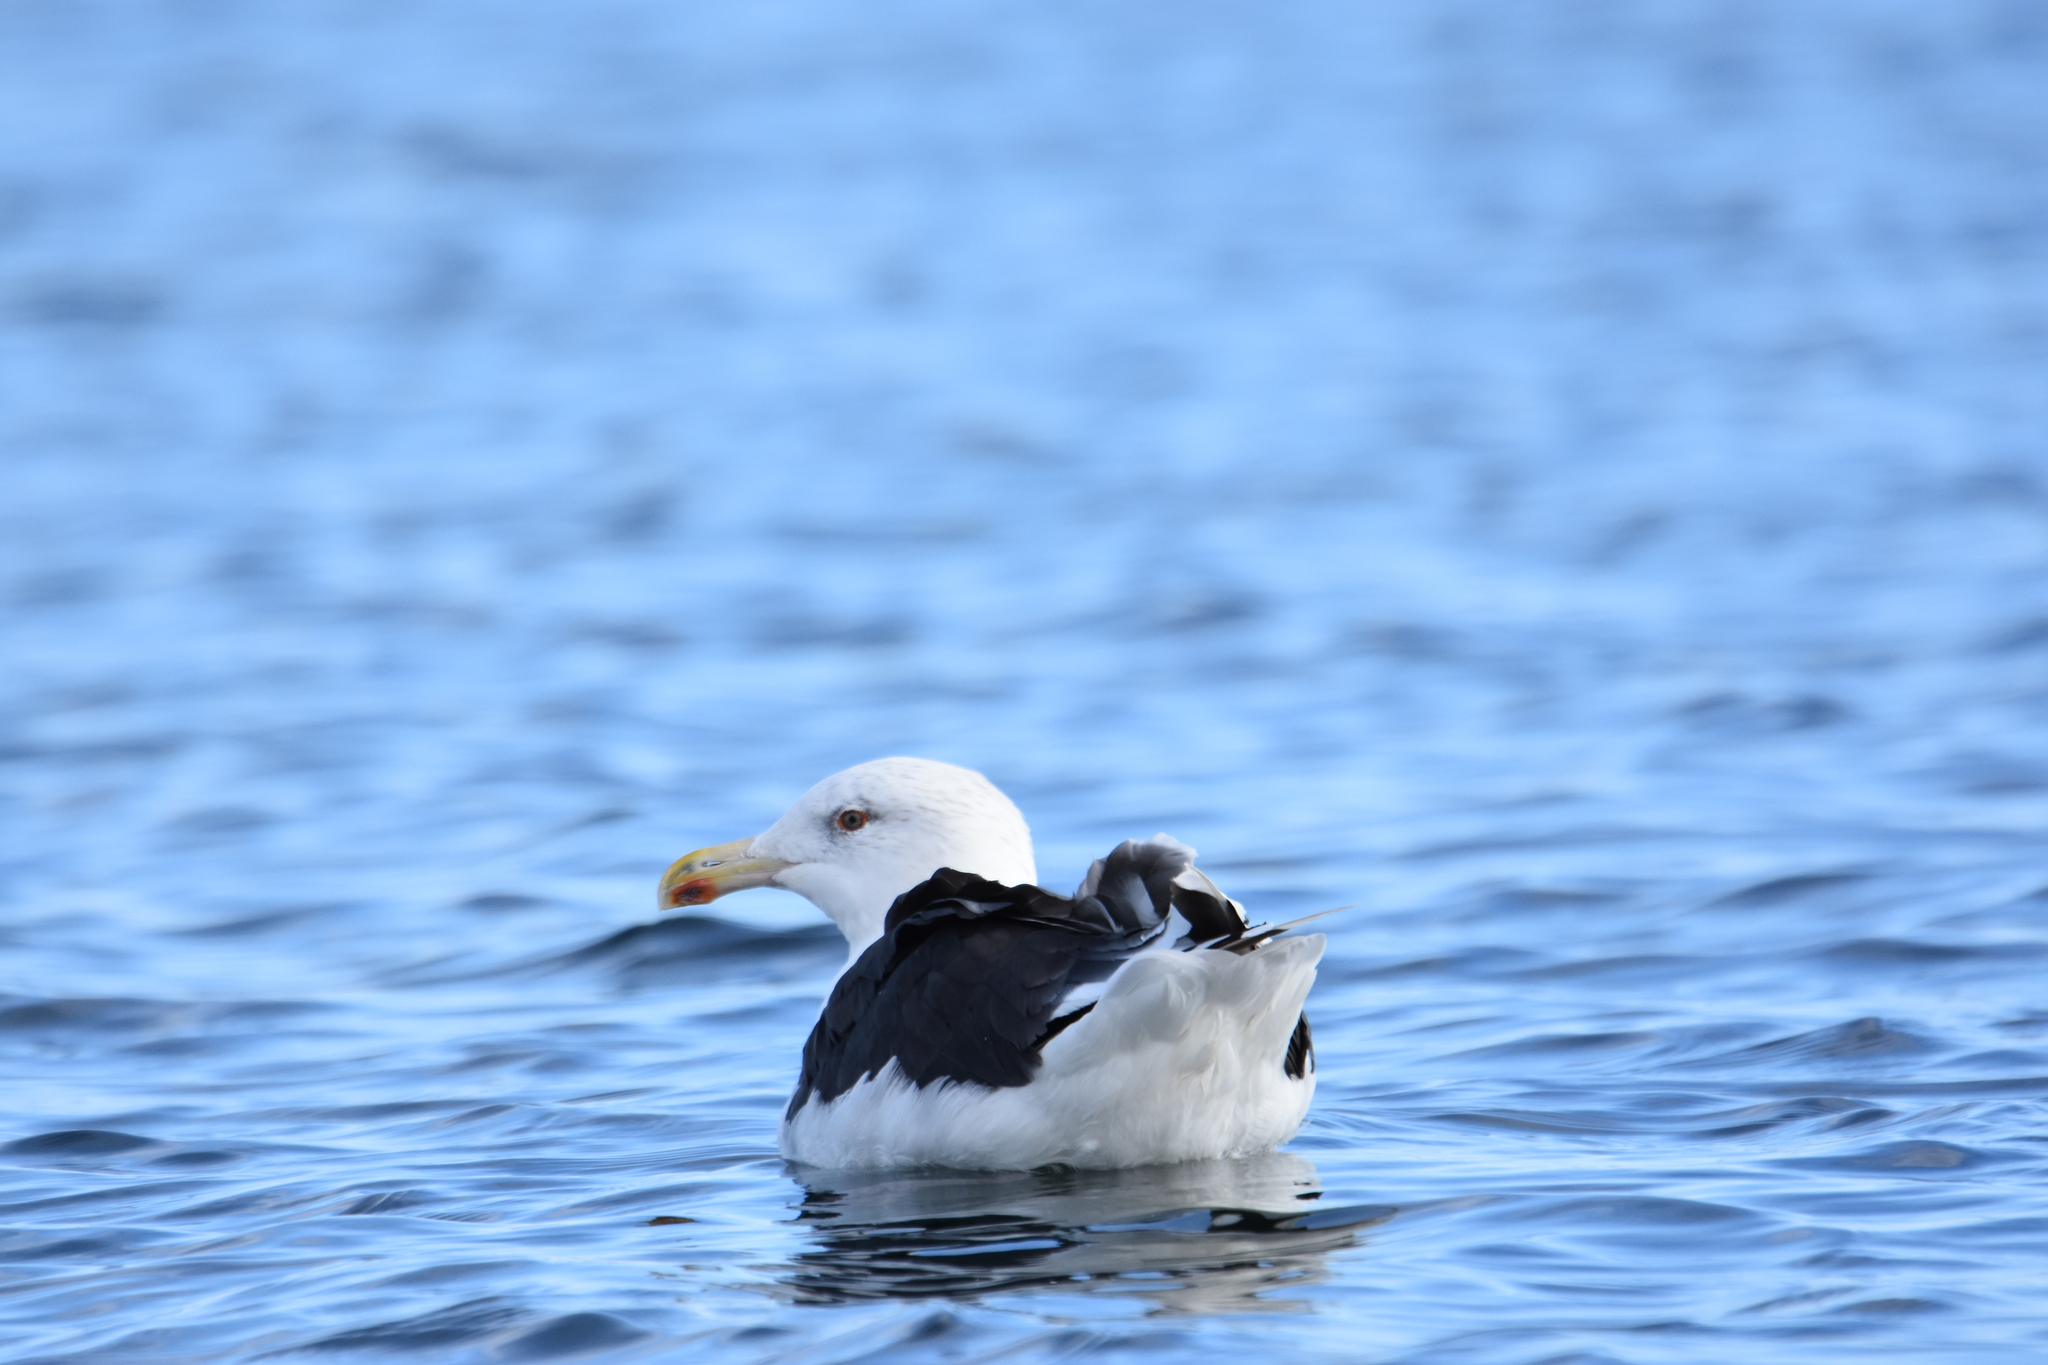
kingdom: Animalia
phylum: Chordata
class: Aves
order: Charadriiformes
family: Laridae
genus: Larus
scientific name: Larus marinus
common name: Great black-backed gull
